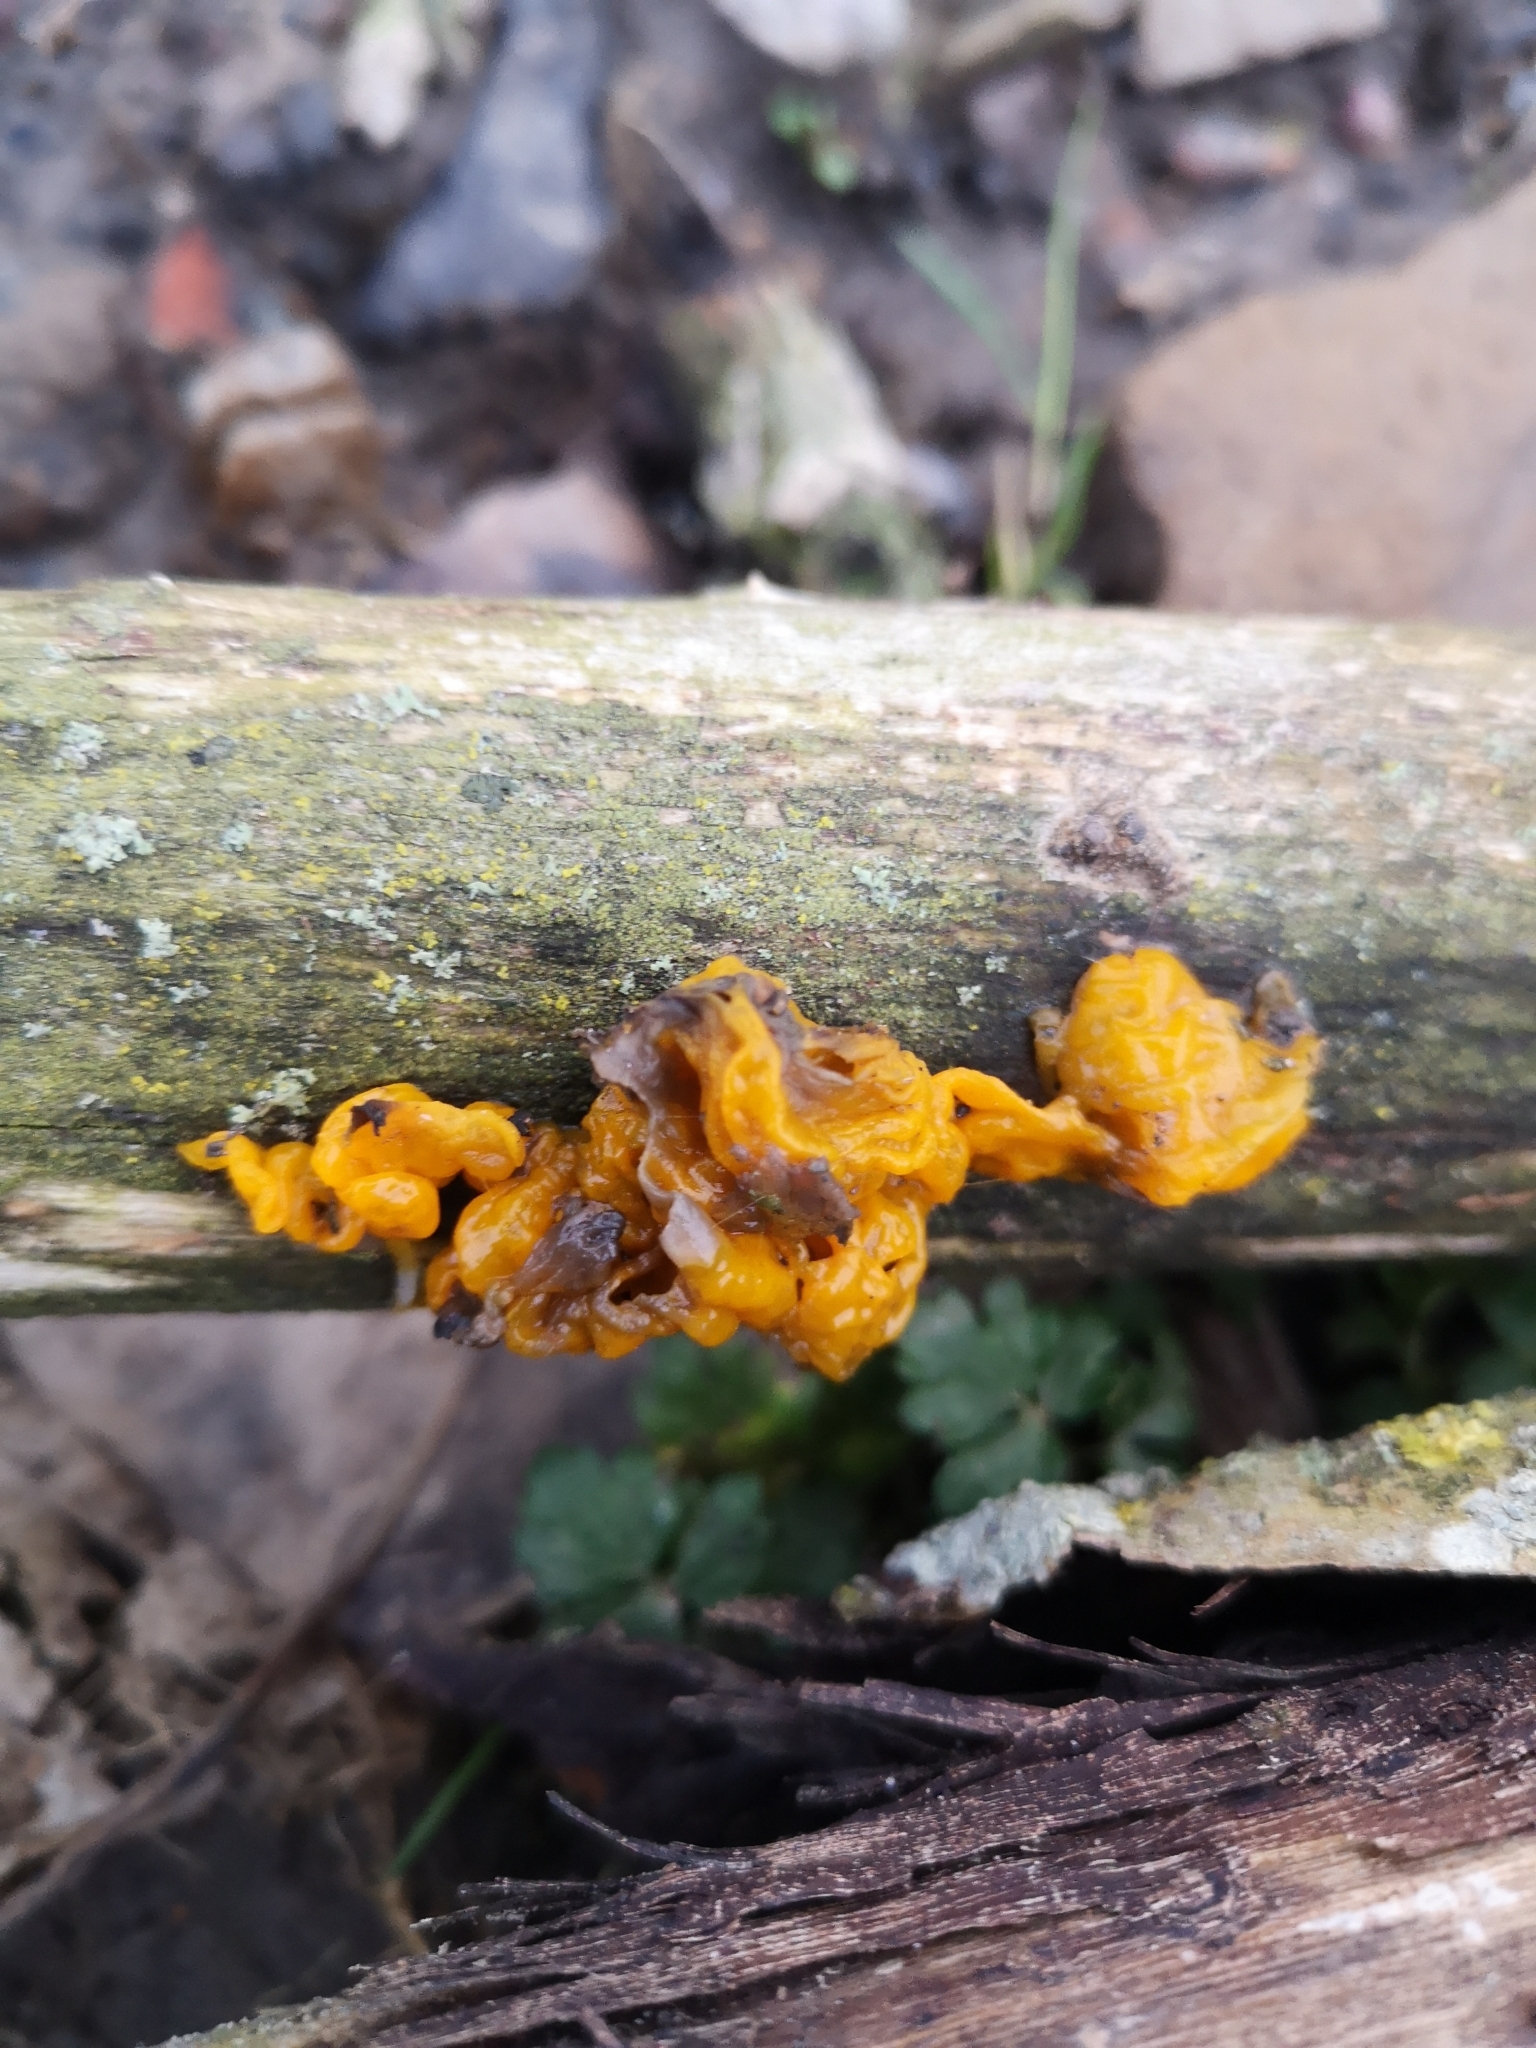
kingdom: Fungi
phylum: Basidiomycota
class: Tremellomycetes
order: Tremellales
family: Tremellaceae
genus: Tremella
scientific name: Tremella mesenterica
